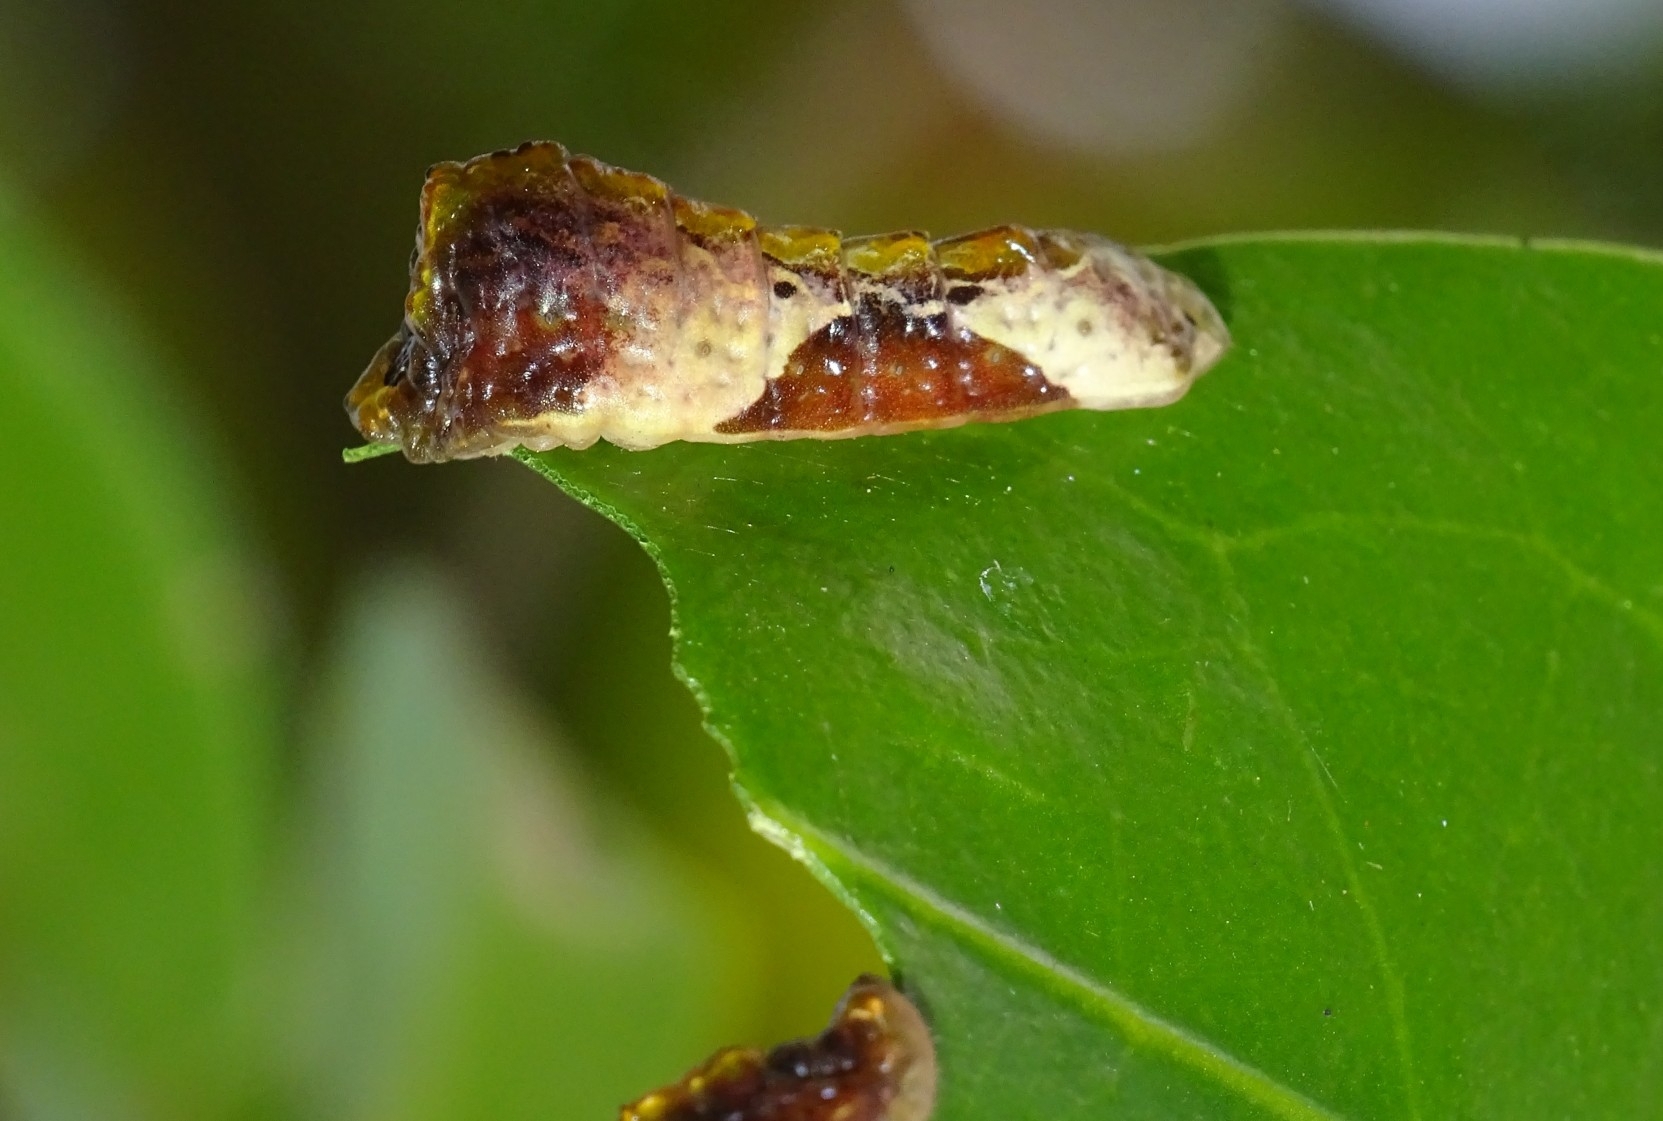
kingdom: Animalia
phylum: Arthropoda
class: Insecta
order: Lepidoptera
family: Lycaenidae
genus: Tajuria
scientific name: Tajuria cippus
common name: Peacock royal
